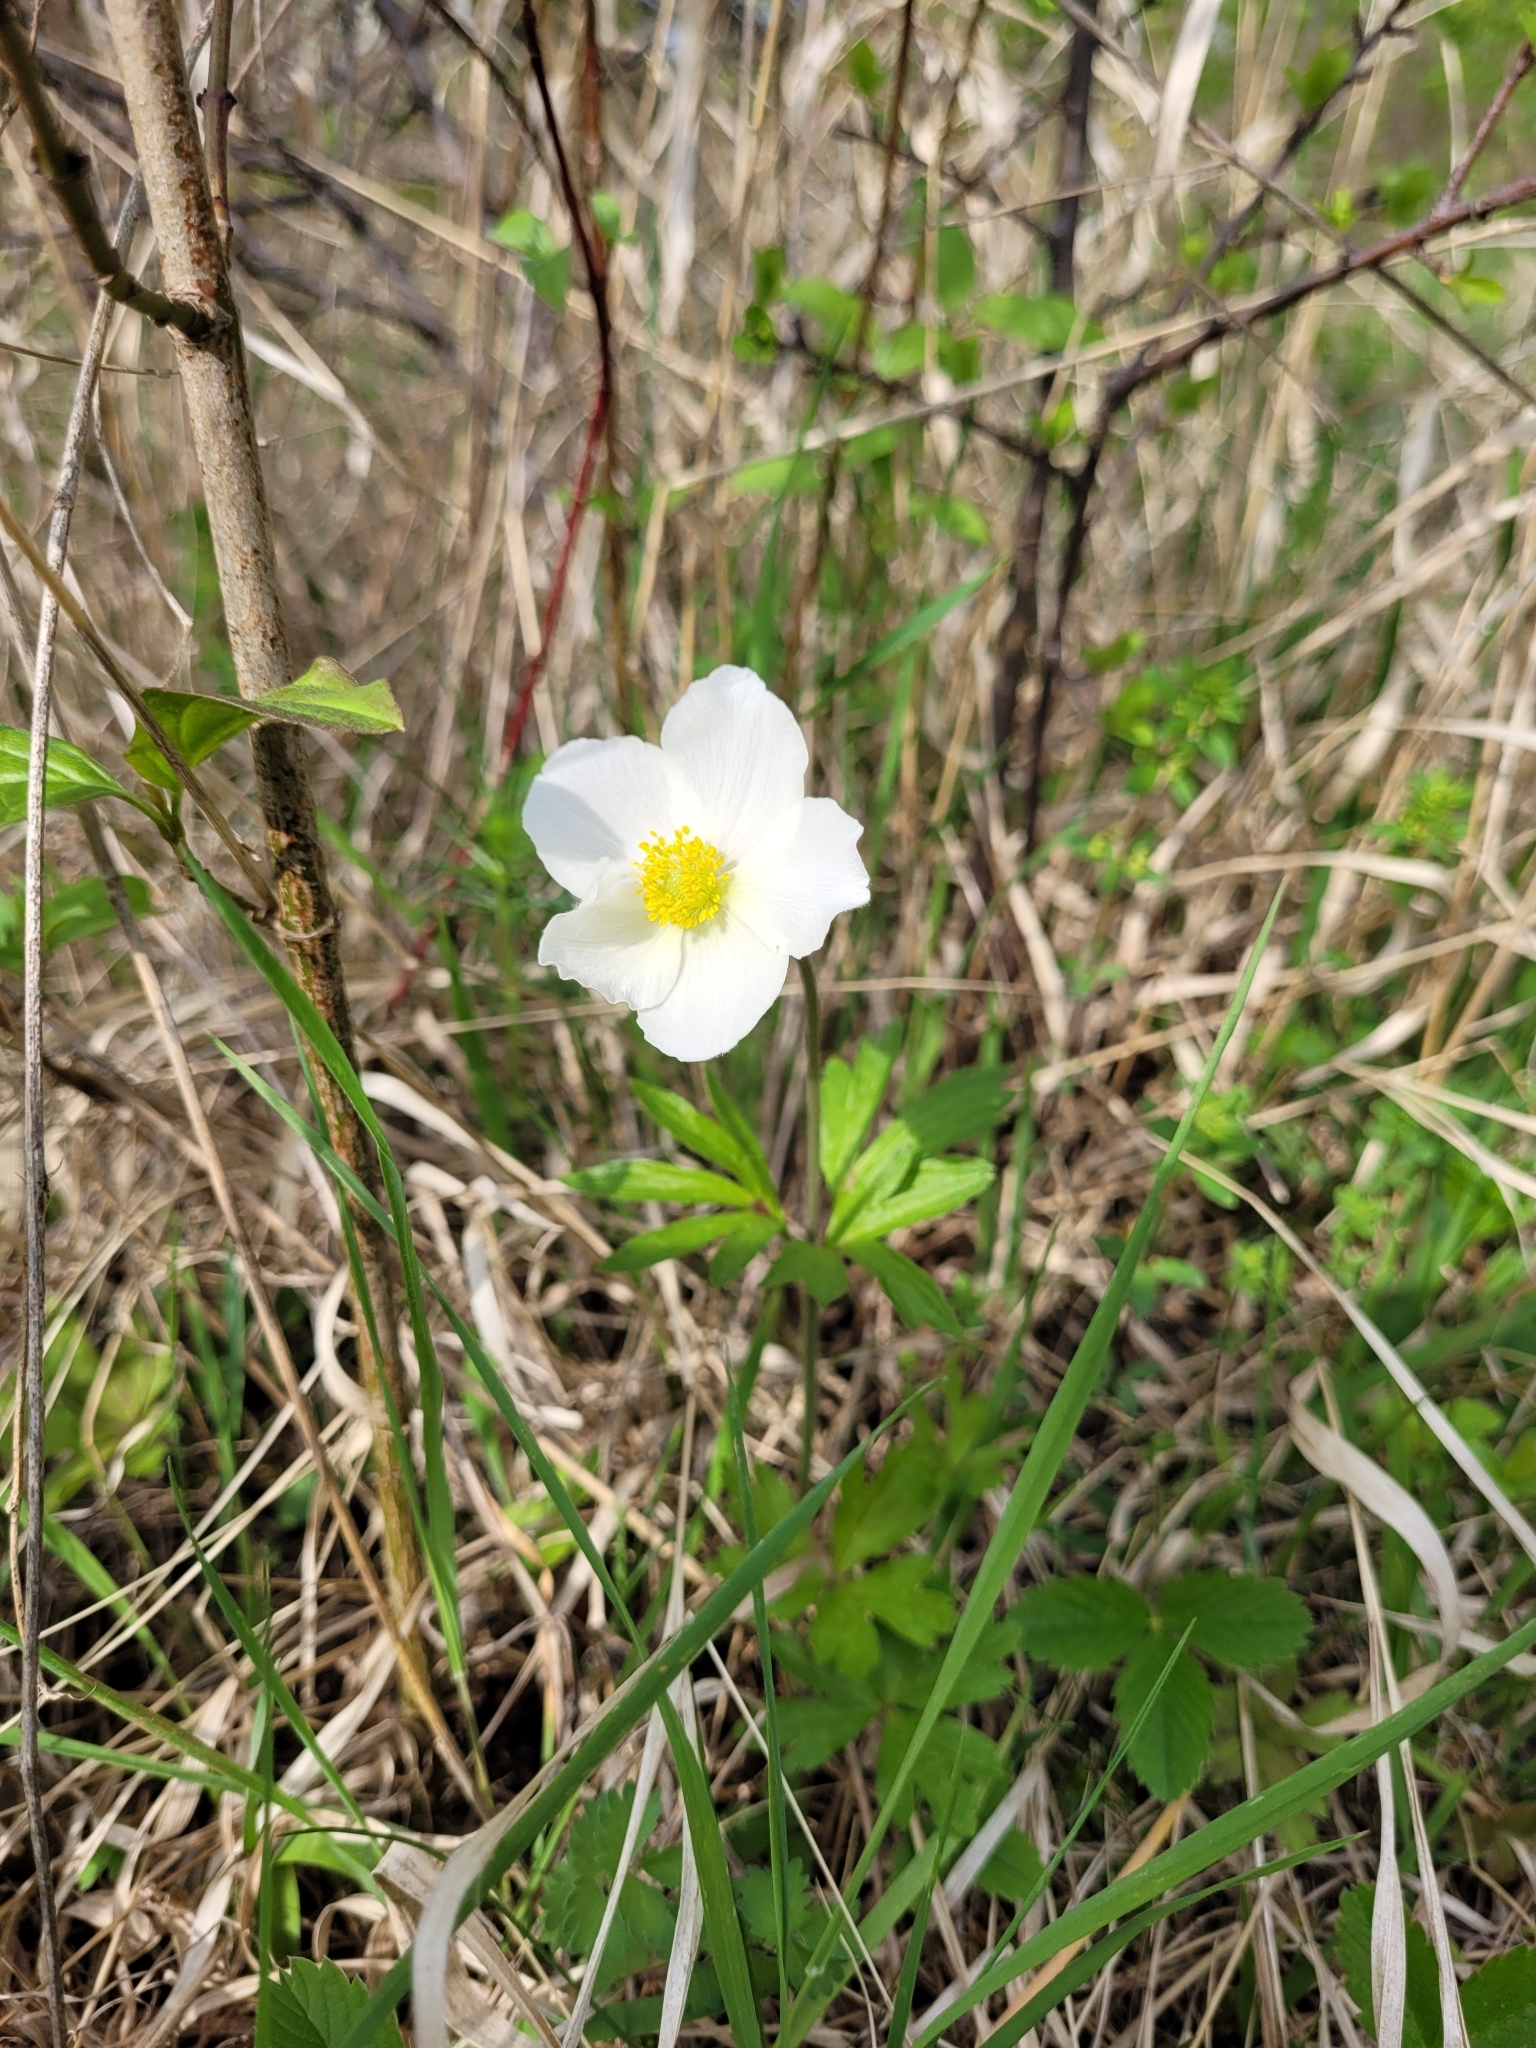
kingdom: Plantae
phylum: Tracheophyta
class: Magnoliopsida
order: Ranunculales
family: Ranunculaceae
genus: Anemone
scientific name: Anemone sylvestris
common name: Snowdrop anemone
